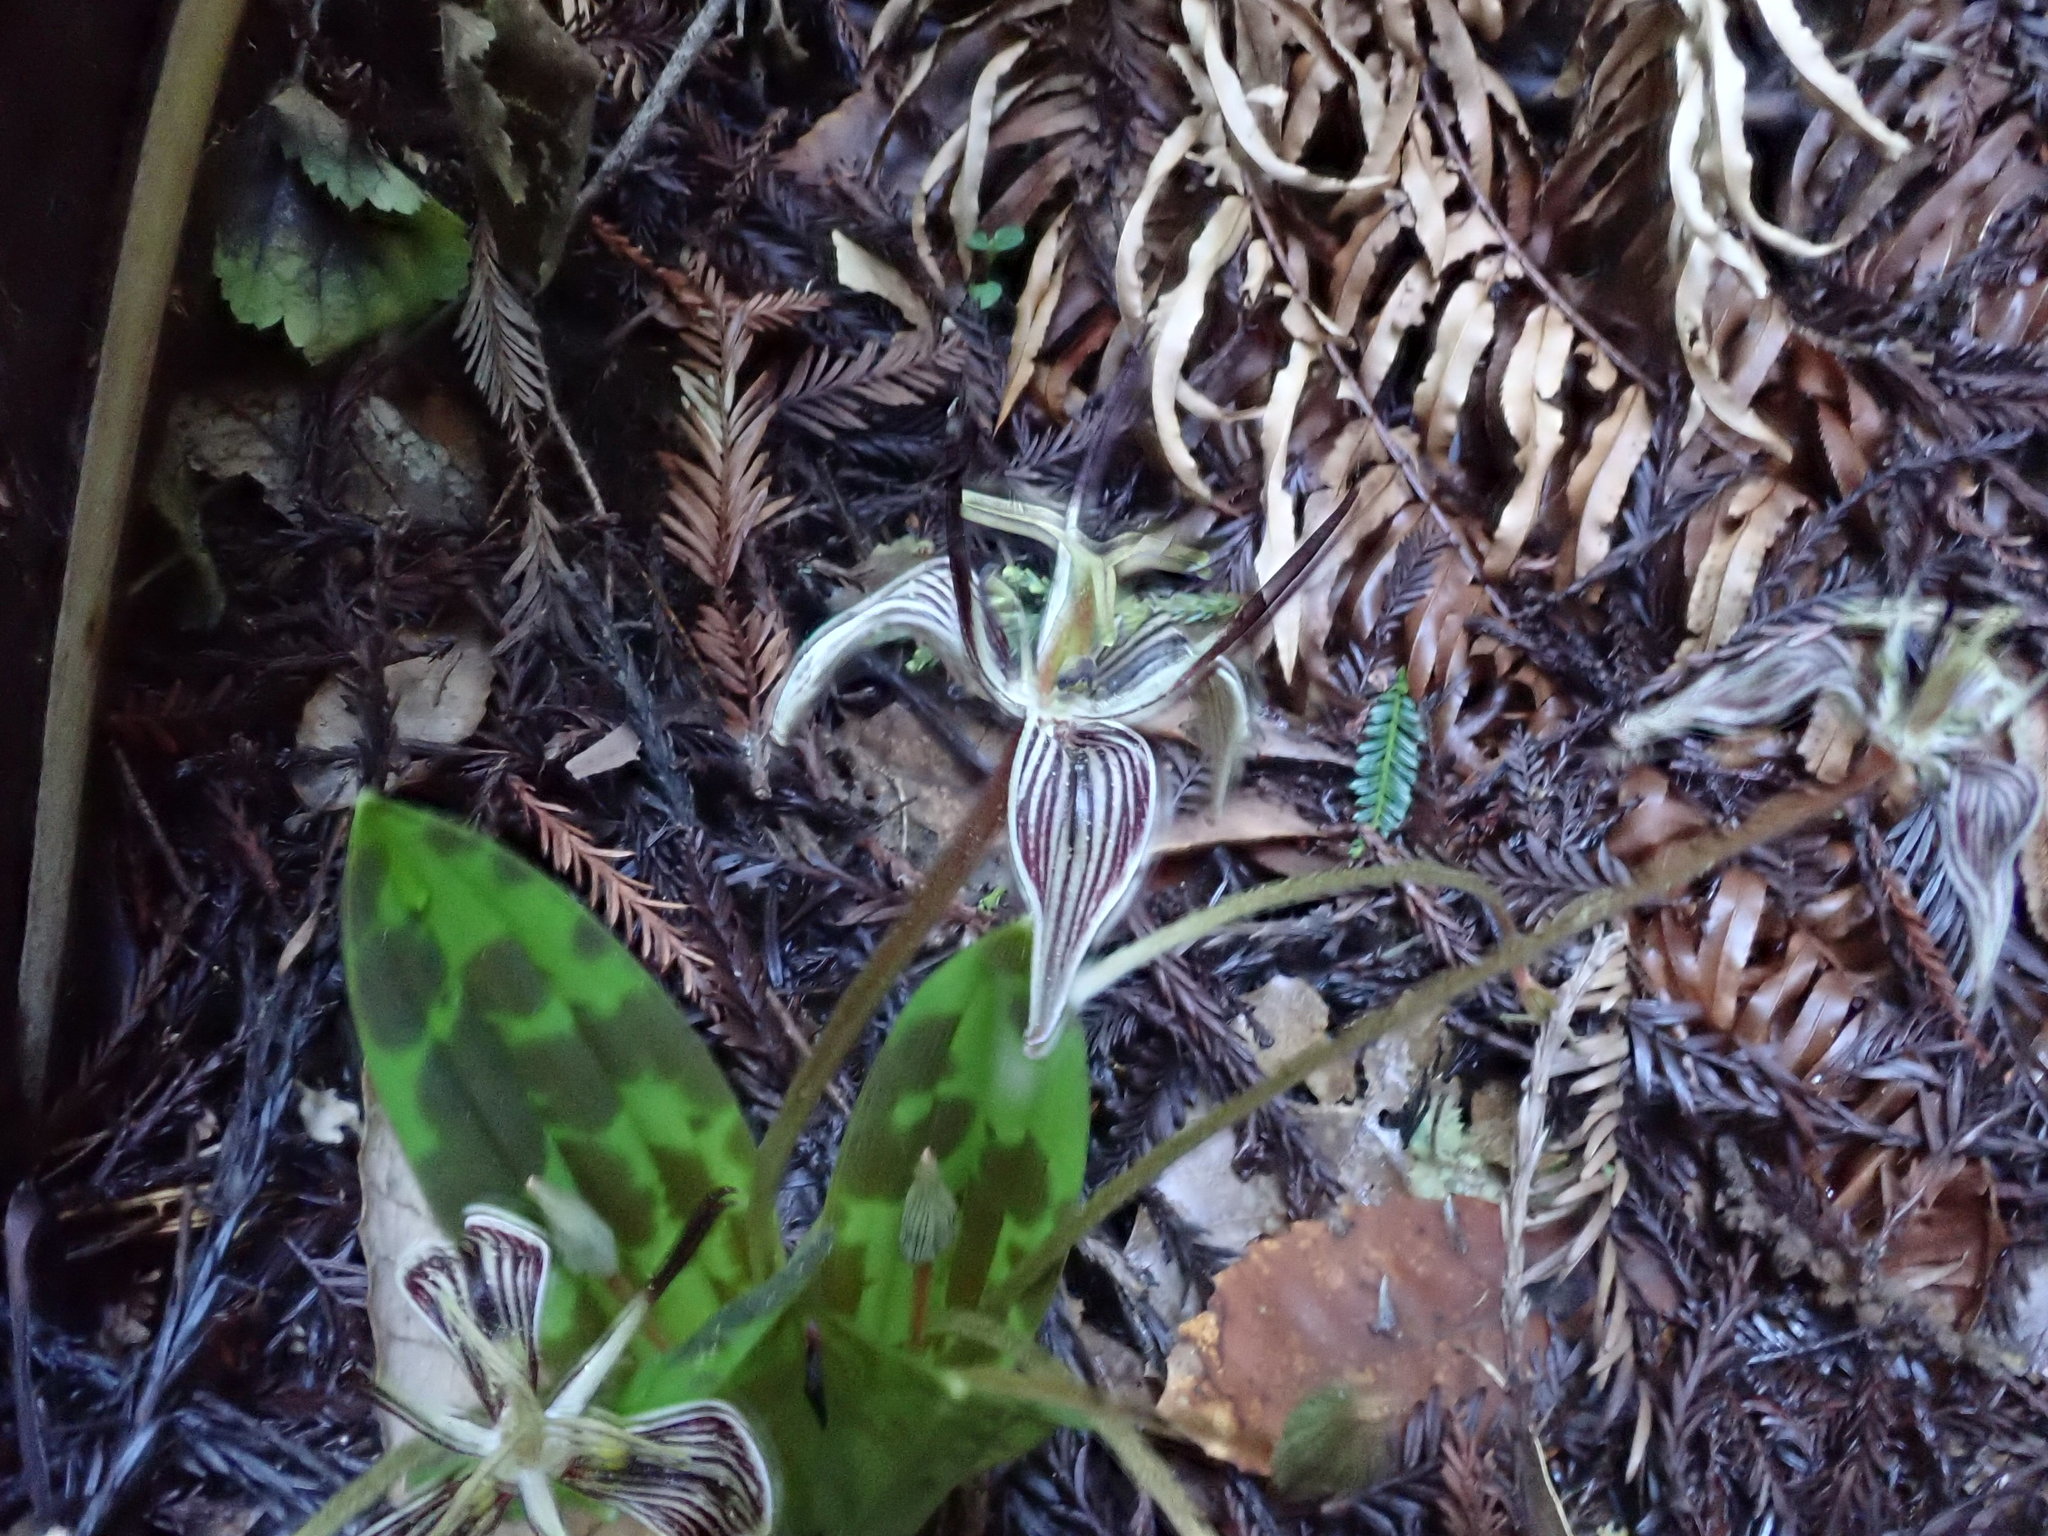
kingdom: Plantae
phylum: Tracheophyta
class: Liliopsida
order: Liliales
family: Liliaceae
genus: Scoliopus
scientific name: Scoliopus bigelovii
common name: Foetid adder's-tongue
